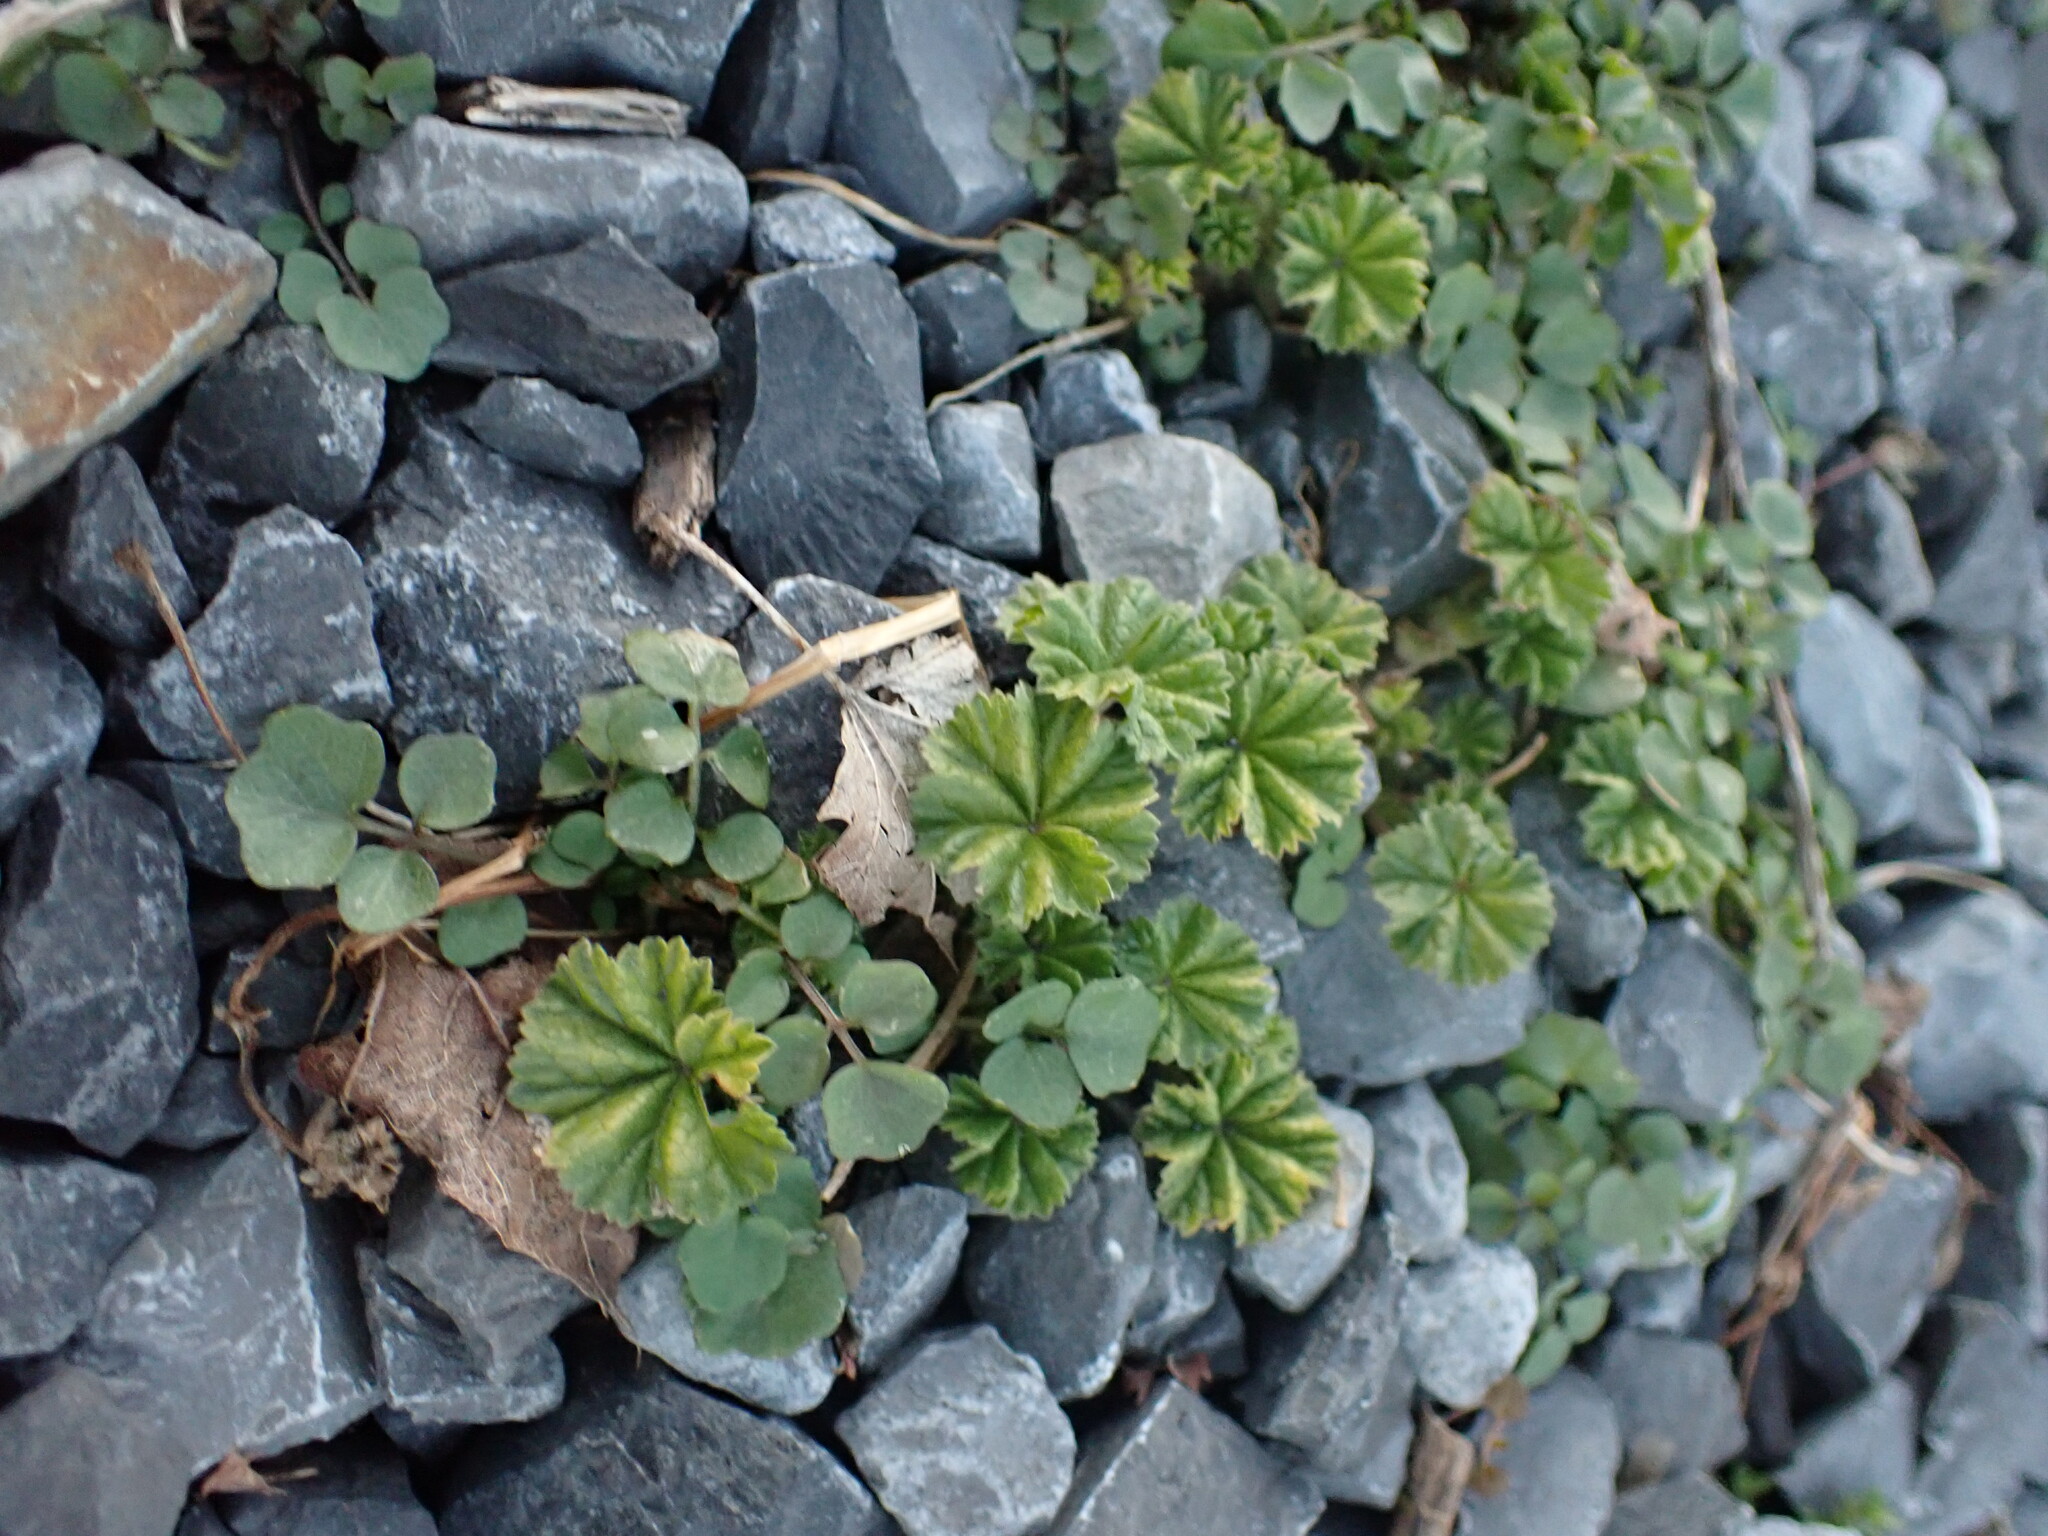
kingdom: Plantae
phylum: Tracheophyta
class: Magnoliopsida
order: Malvales
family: Malvaceae
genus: Malva
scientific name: Malva neglecta
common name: Common mallow
